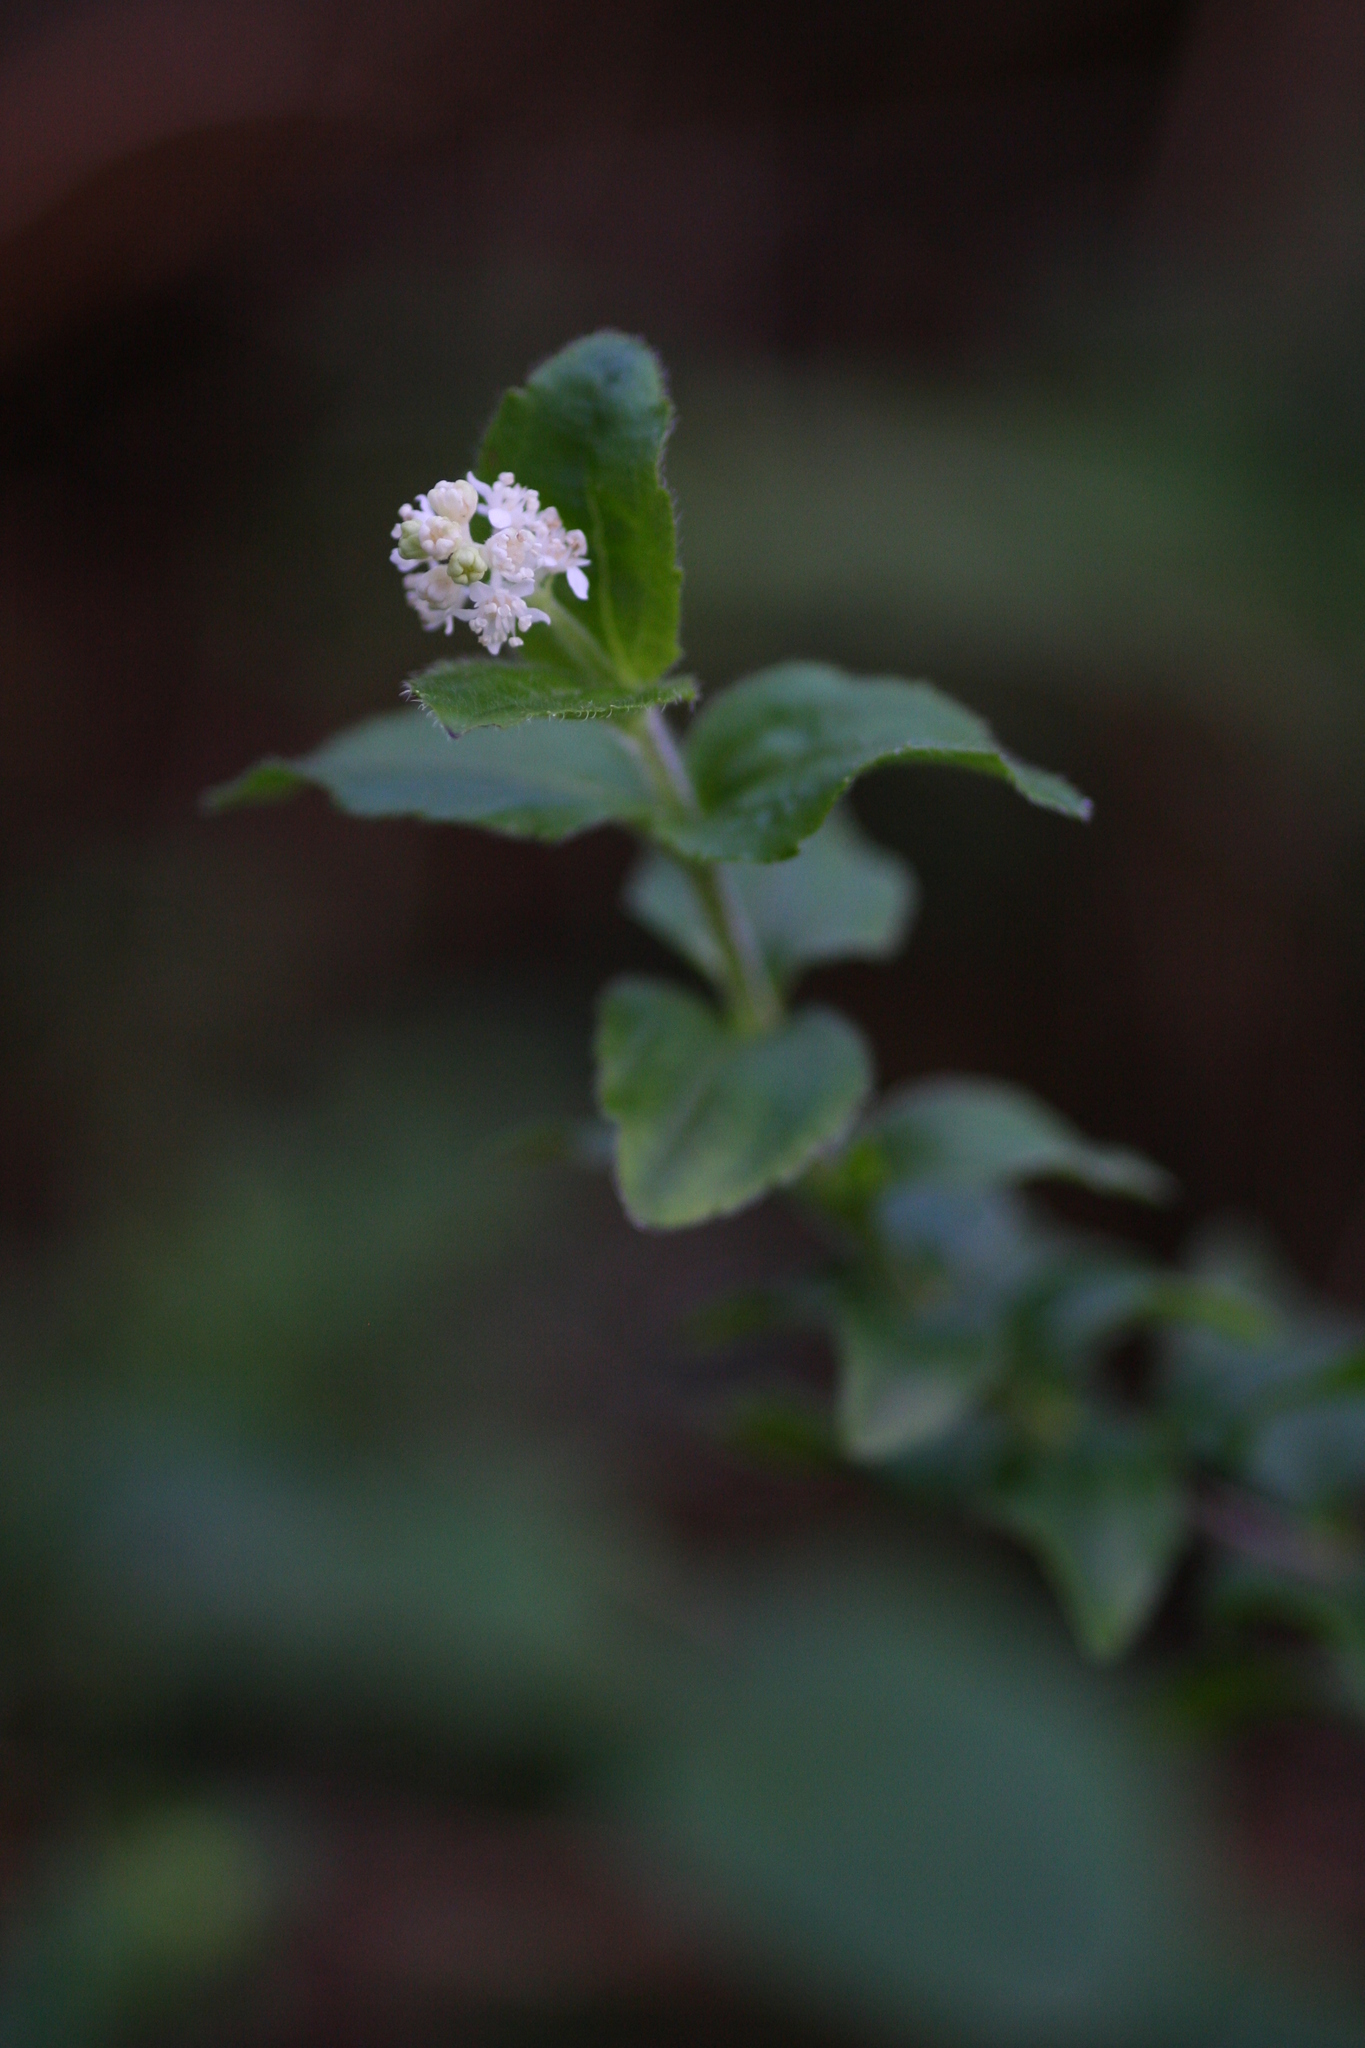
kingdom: Plantae
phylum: Tracheophyta
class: Magnoliopsida
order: Cornales
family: Hydrangeaceae
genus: Whipplea
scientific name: Whipplea modesta
